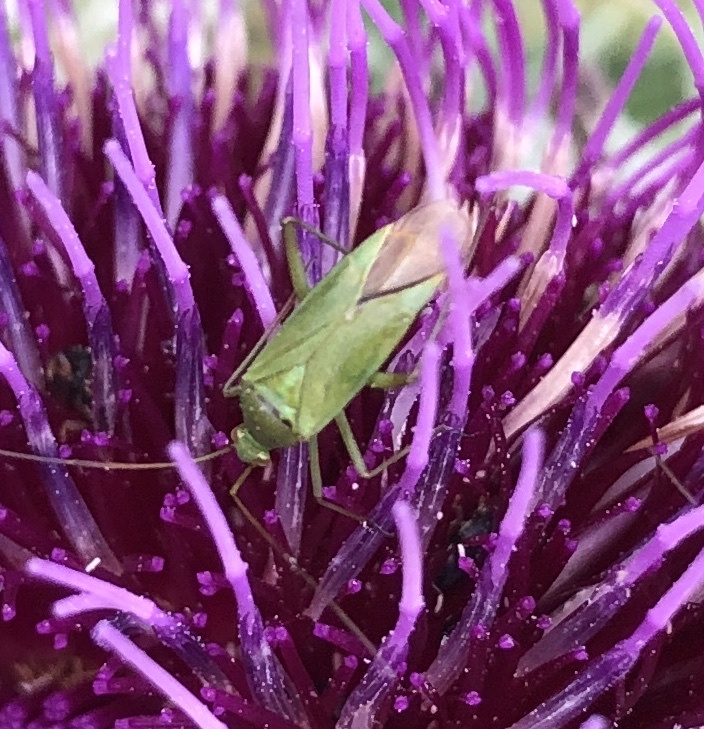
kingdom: Animalia
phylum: Arthropoda
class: Insecta
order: Hemiptera
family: Miridae
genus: Calocoris
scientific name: Calocoris affinis
